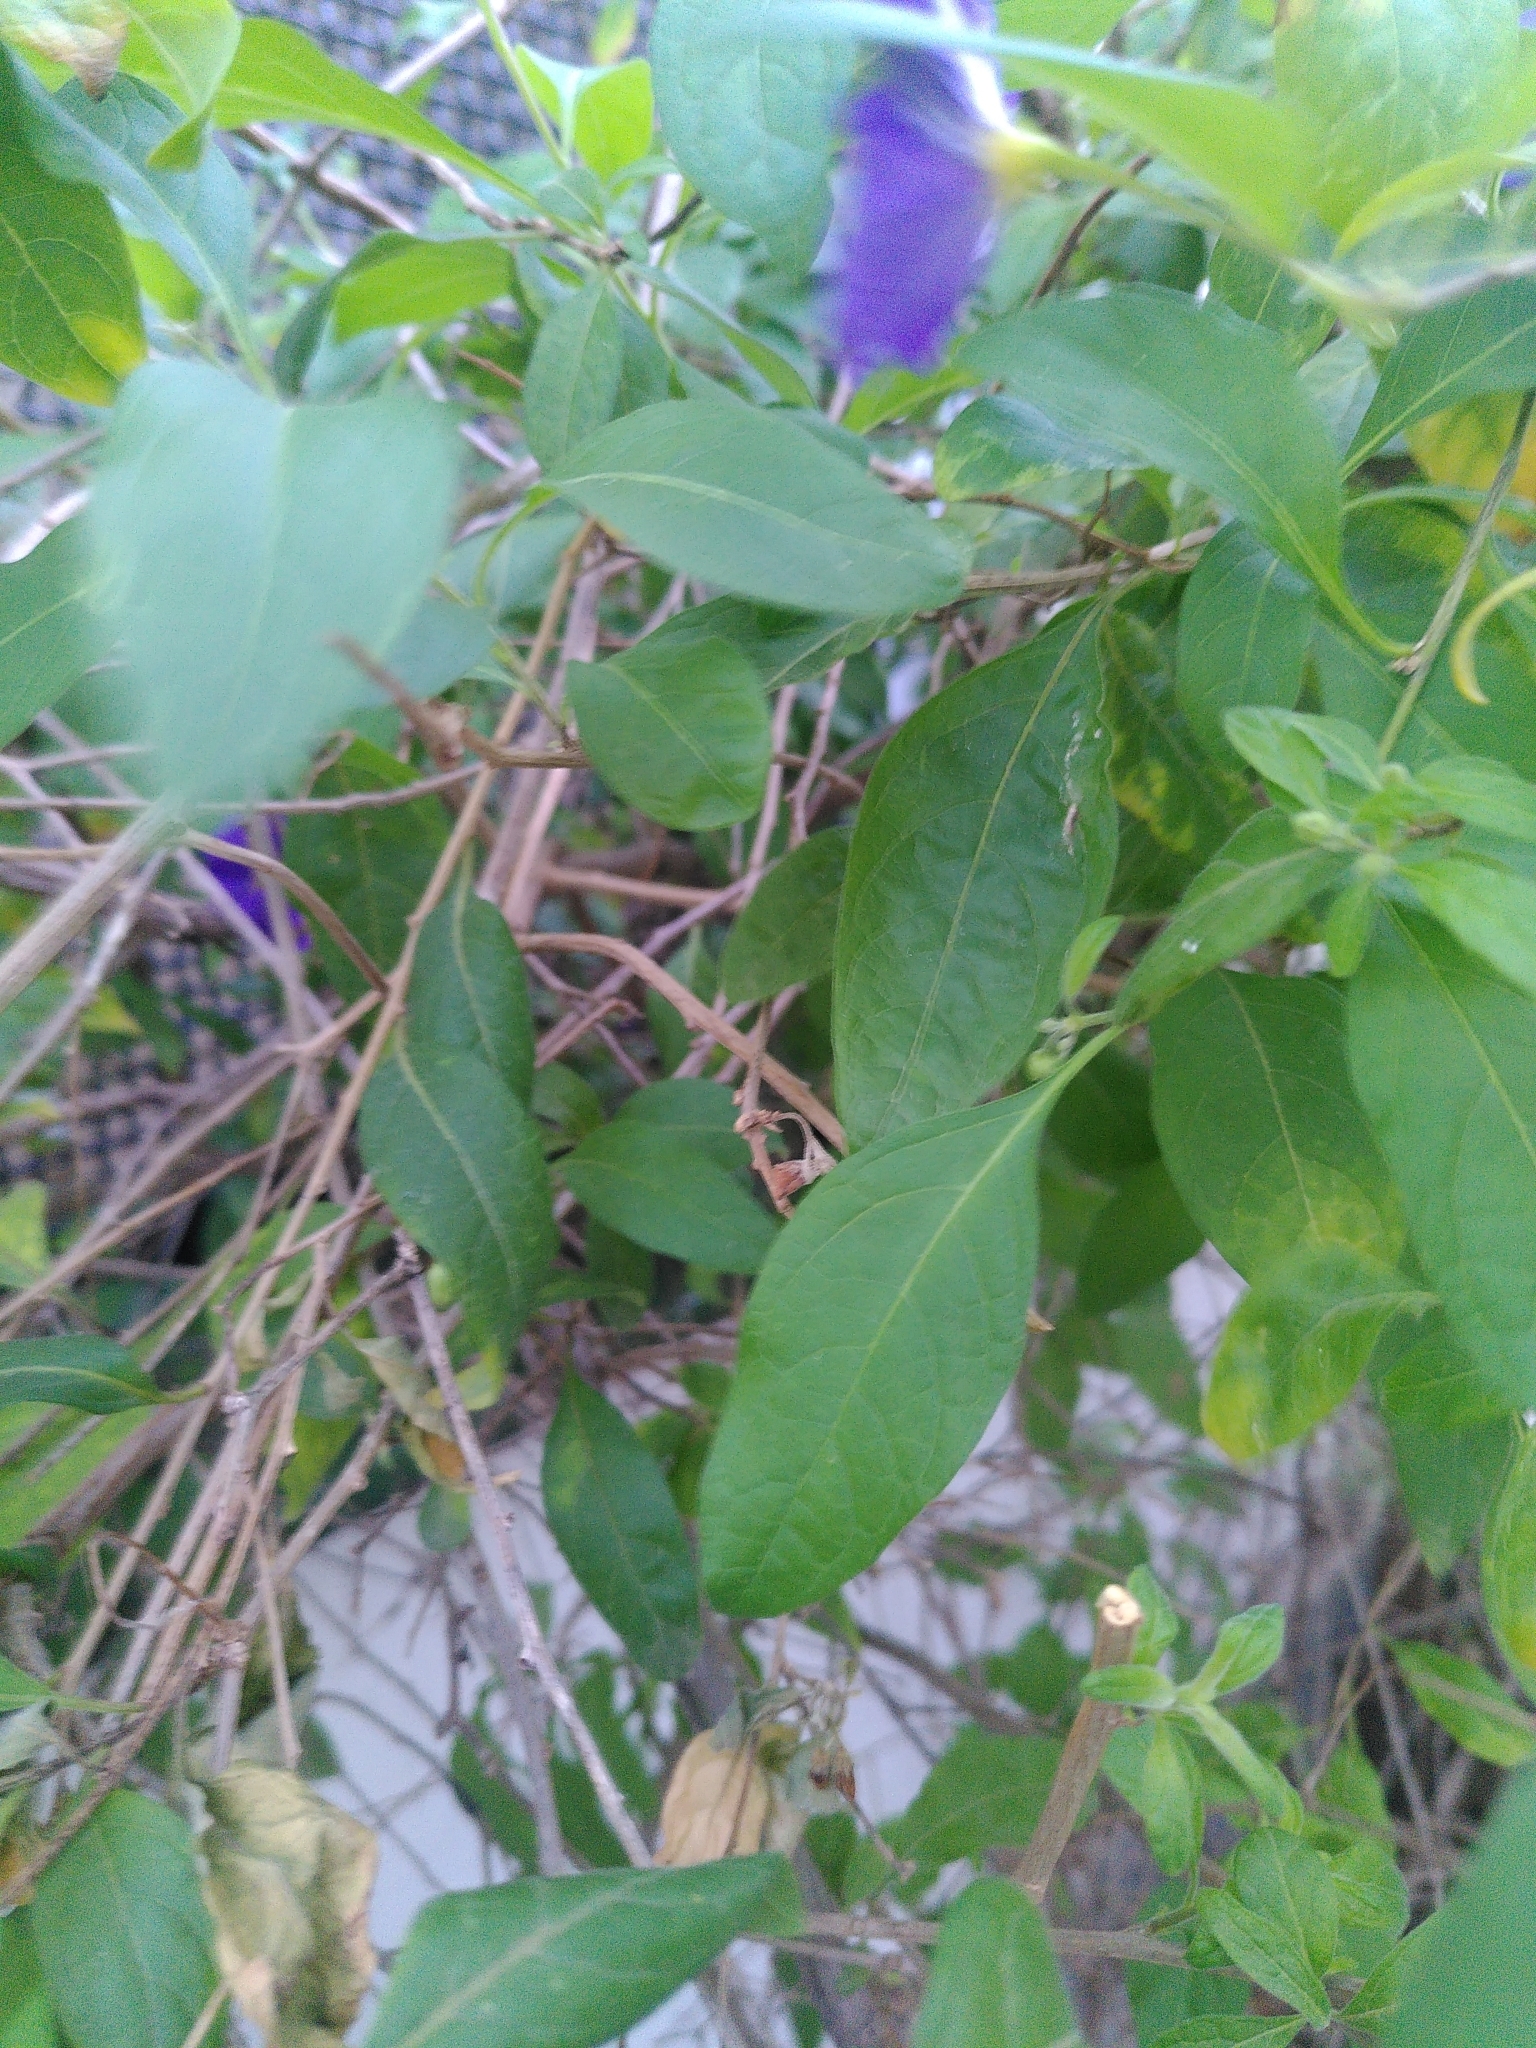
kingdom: Plantae
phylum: Tracheophyta
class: Magnoliopsida
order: Solanales
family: Solanaceae
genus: Lycianthes
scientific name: Lycianthes rantonnetii
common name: Blue potatobush
